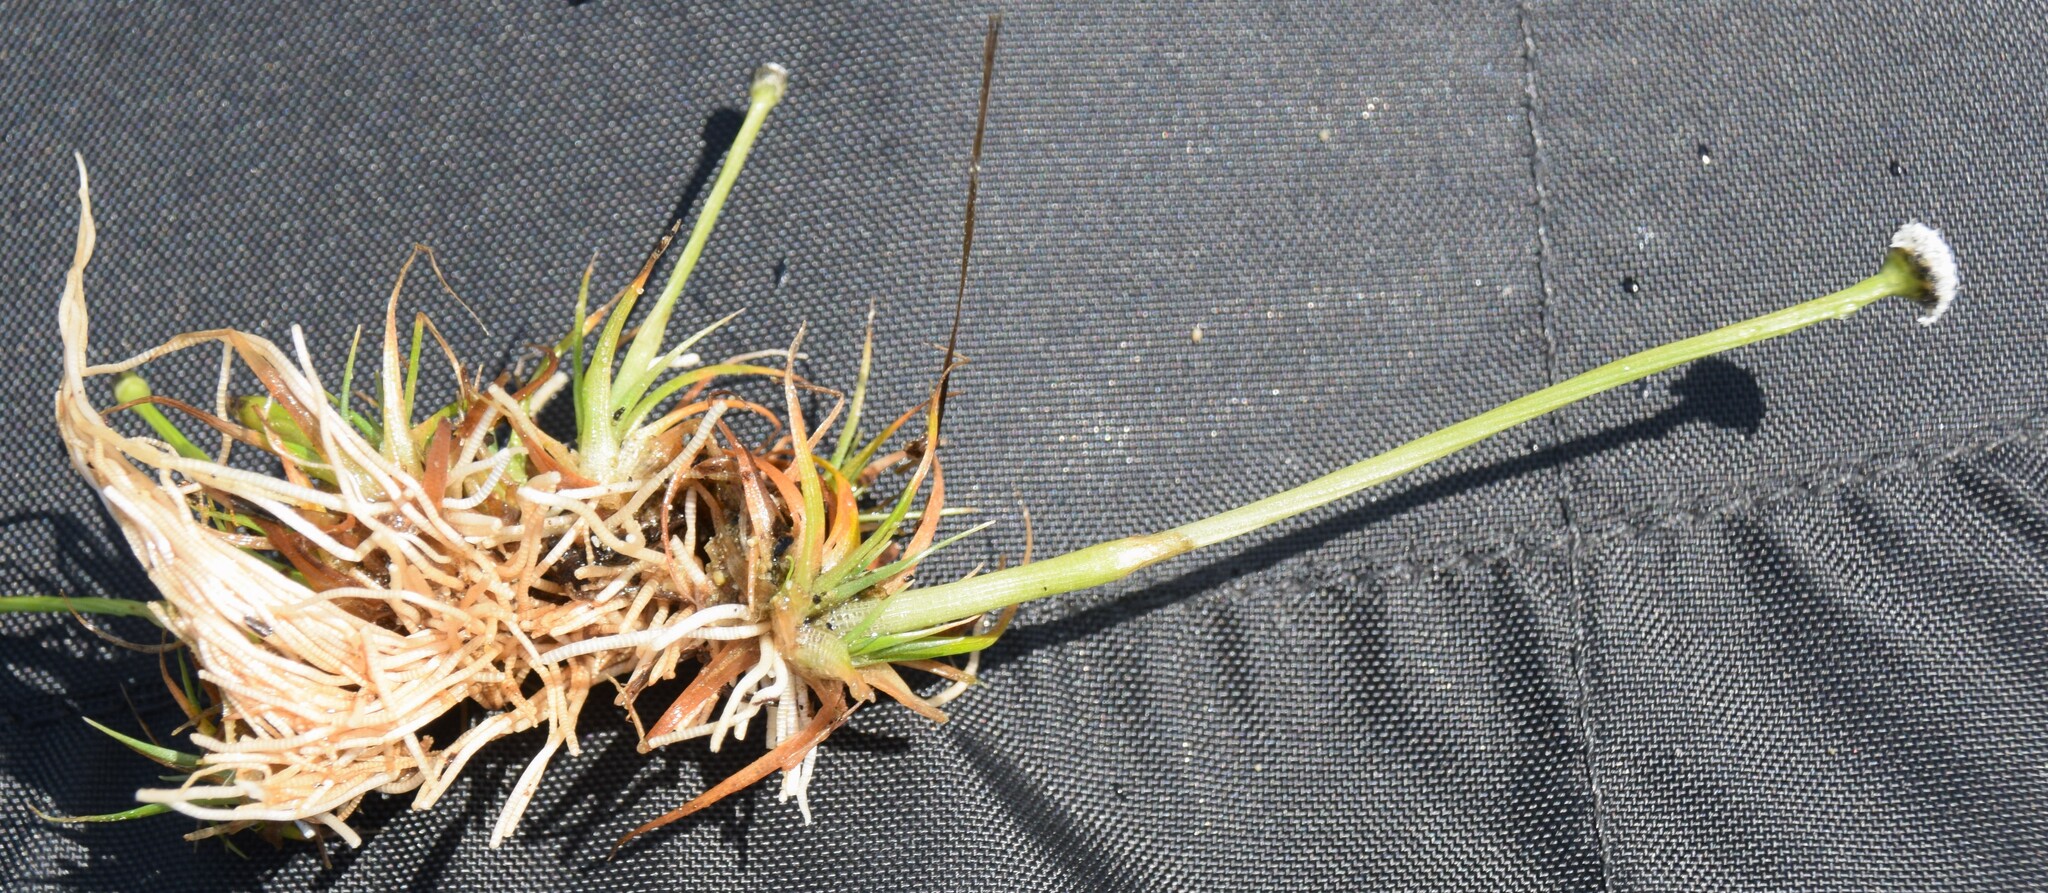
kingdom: Plantae
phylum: Tracheophyta
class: Liliopsida
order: Poales
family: Eriocaulaceae
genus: Eriocaulon
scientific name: Eriocaulon aquaticum
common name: Pipewort
